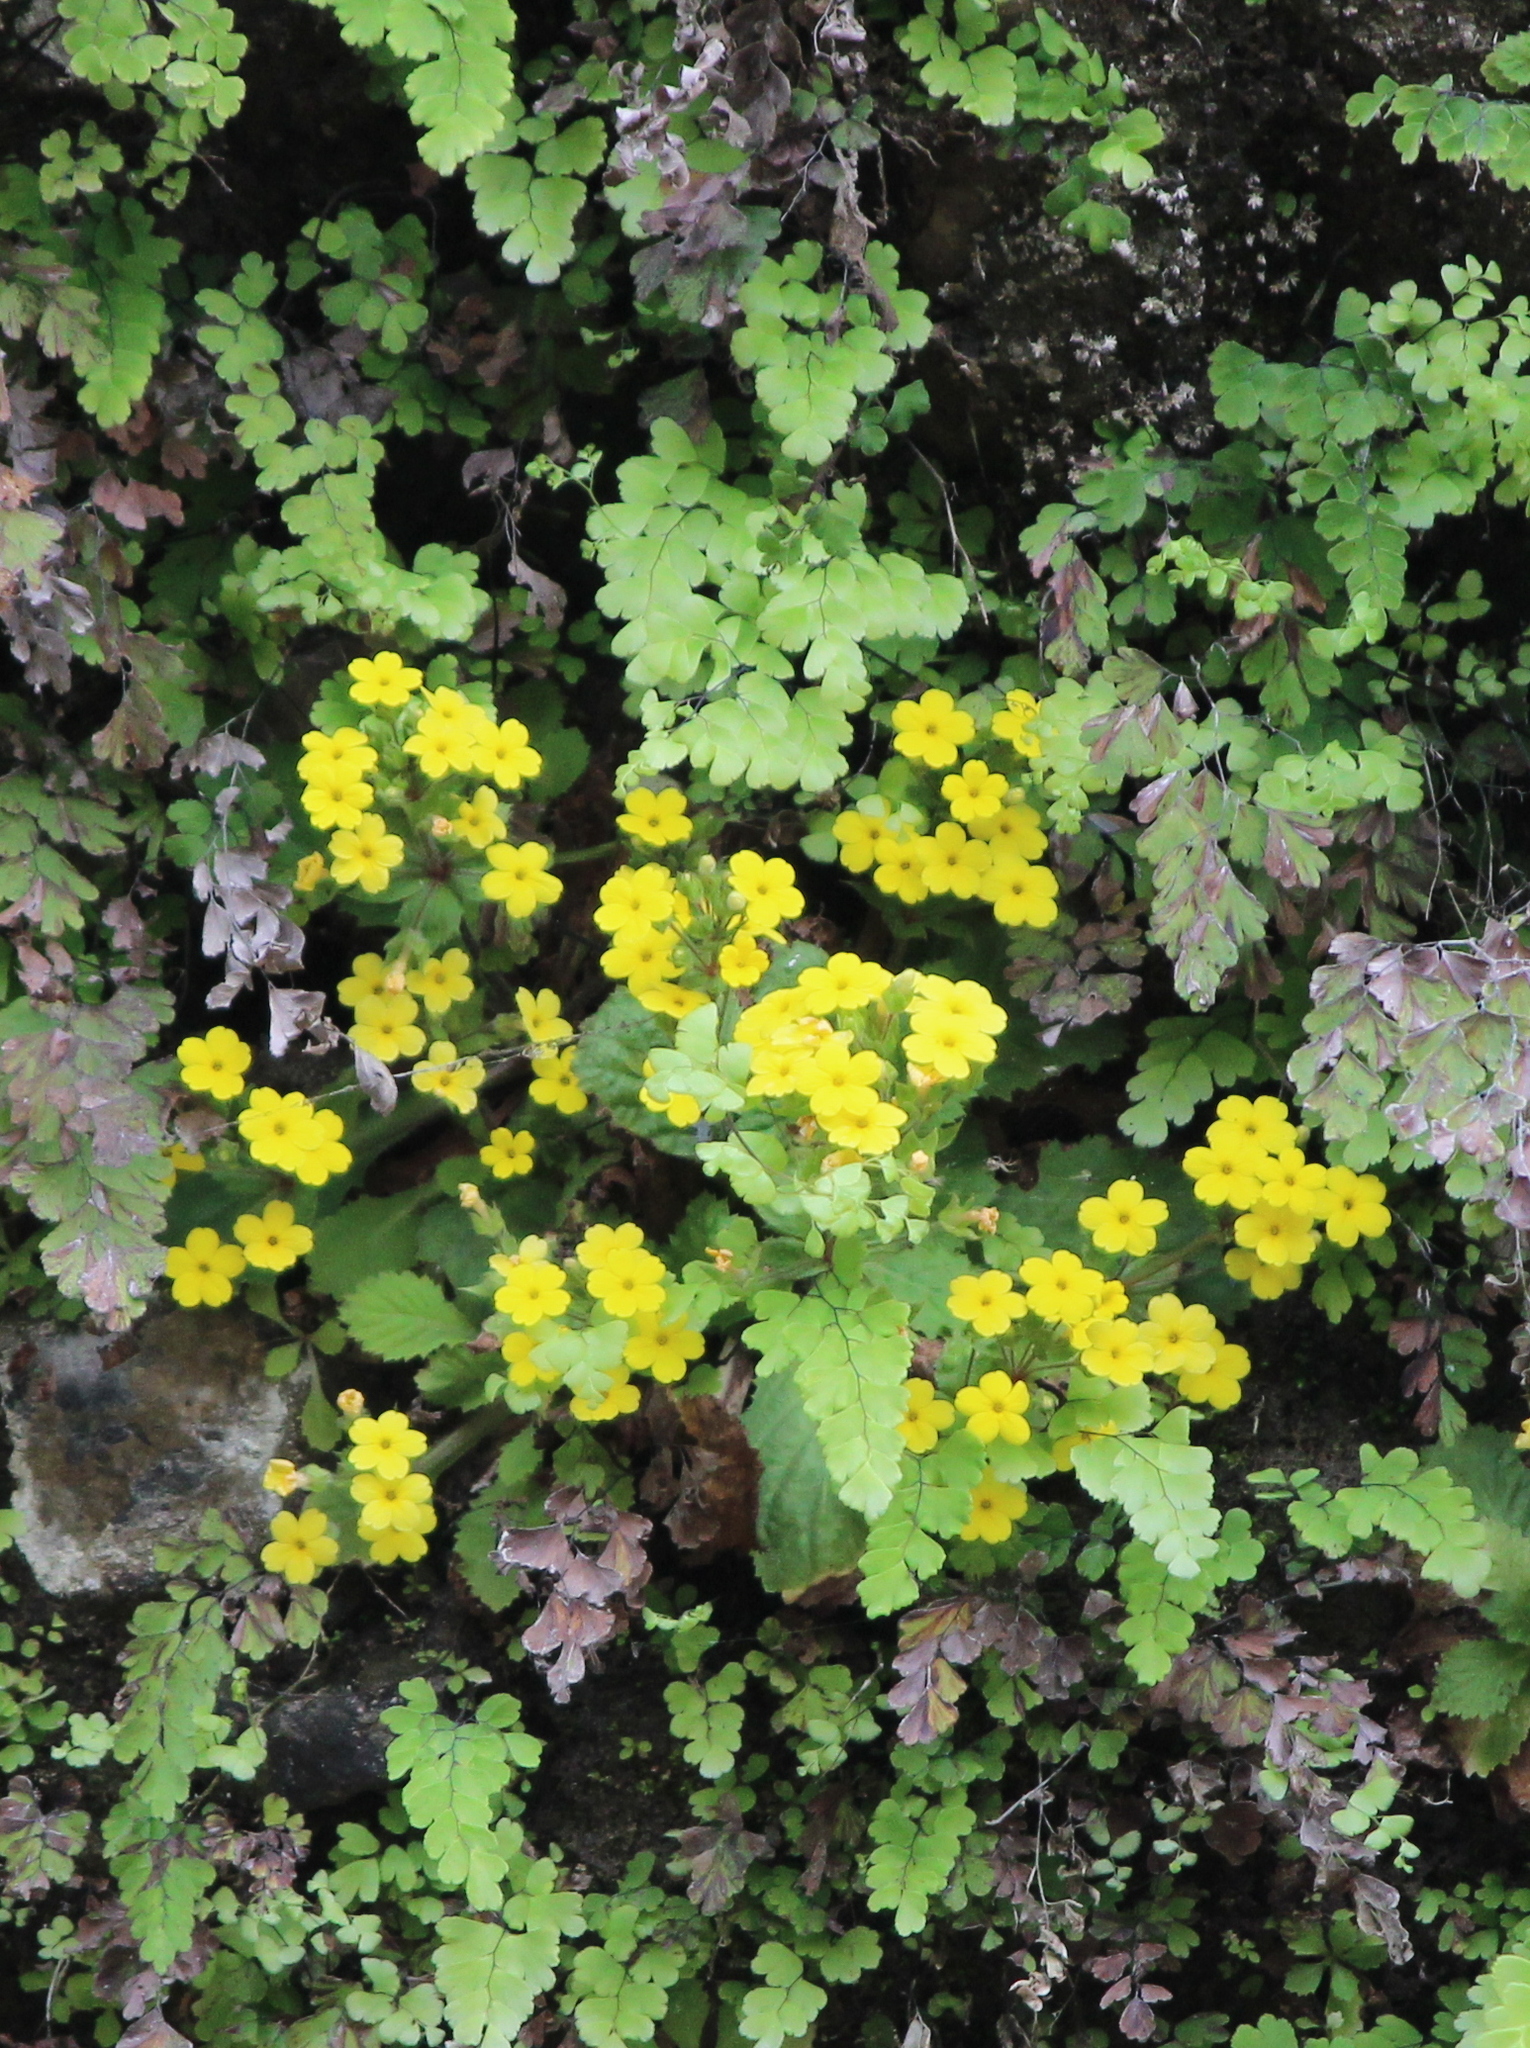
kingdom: Plantae
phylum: Tracheophyta
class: Magnoliopsida
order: Ericales
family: Primulaceae
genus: Evotrochis
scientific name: Evotrochis floribunda
